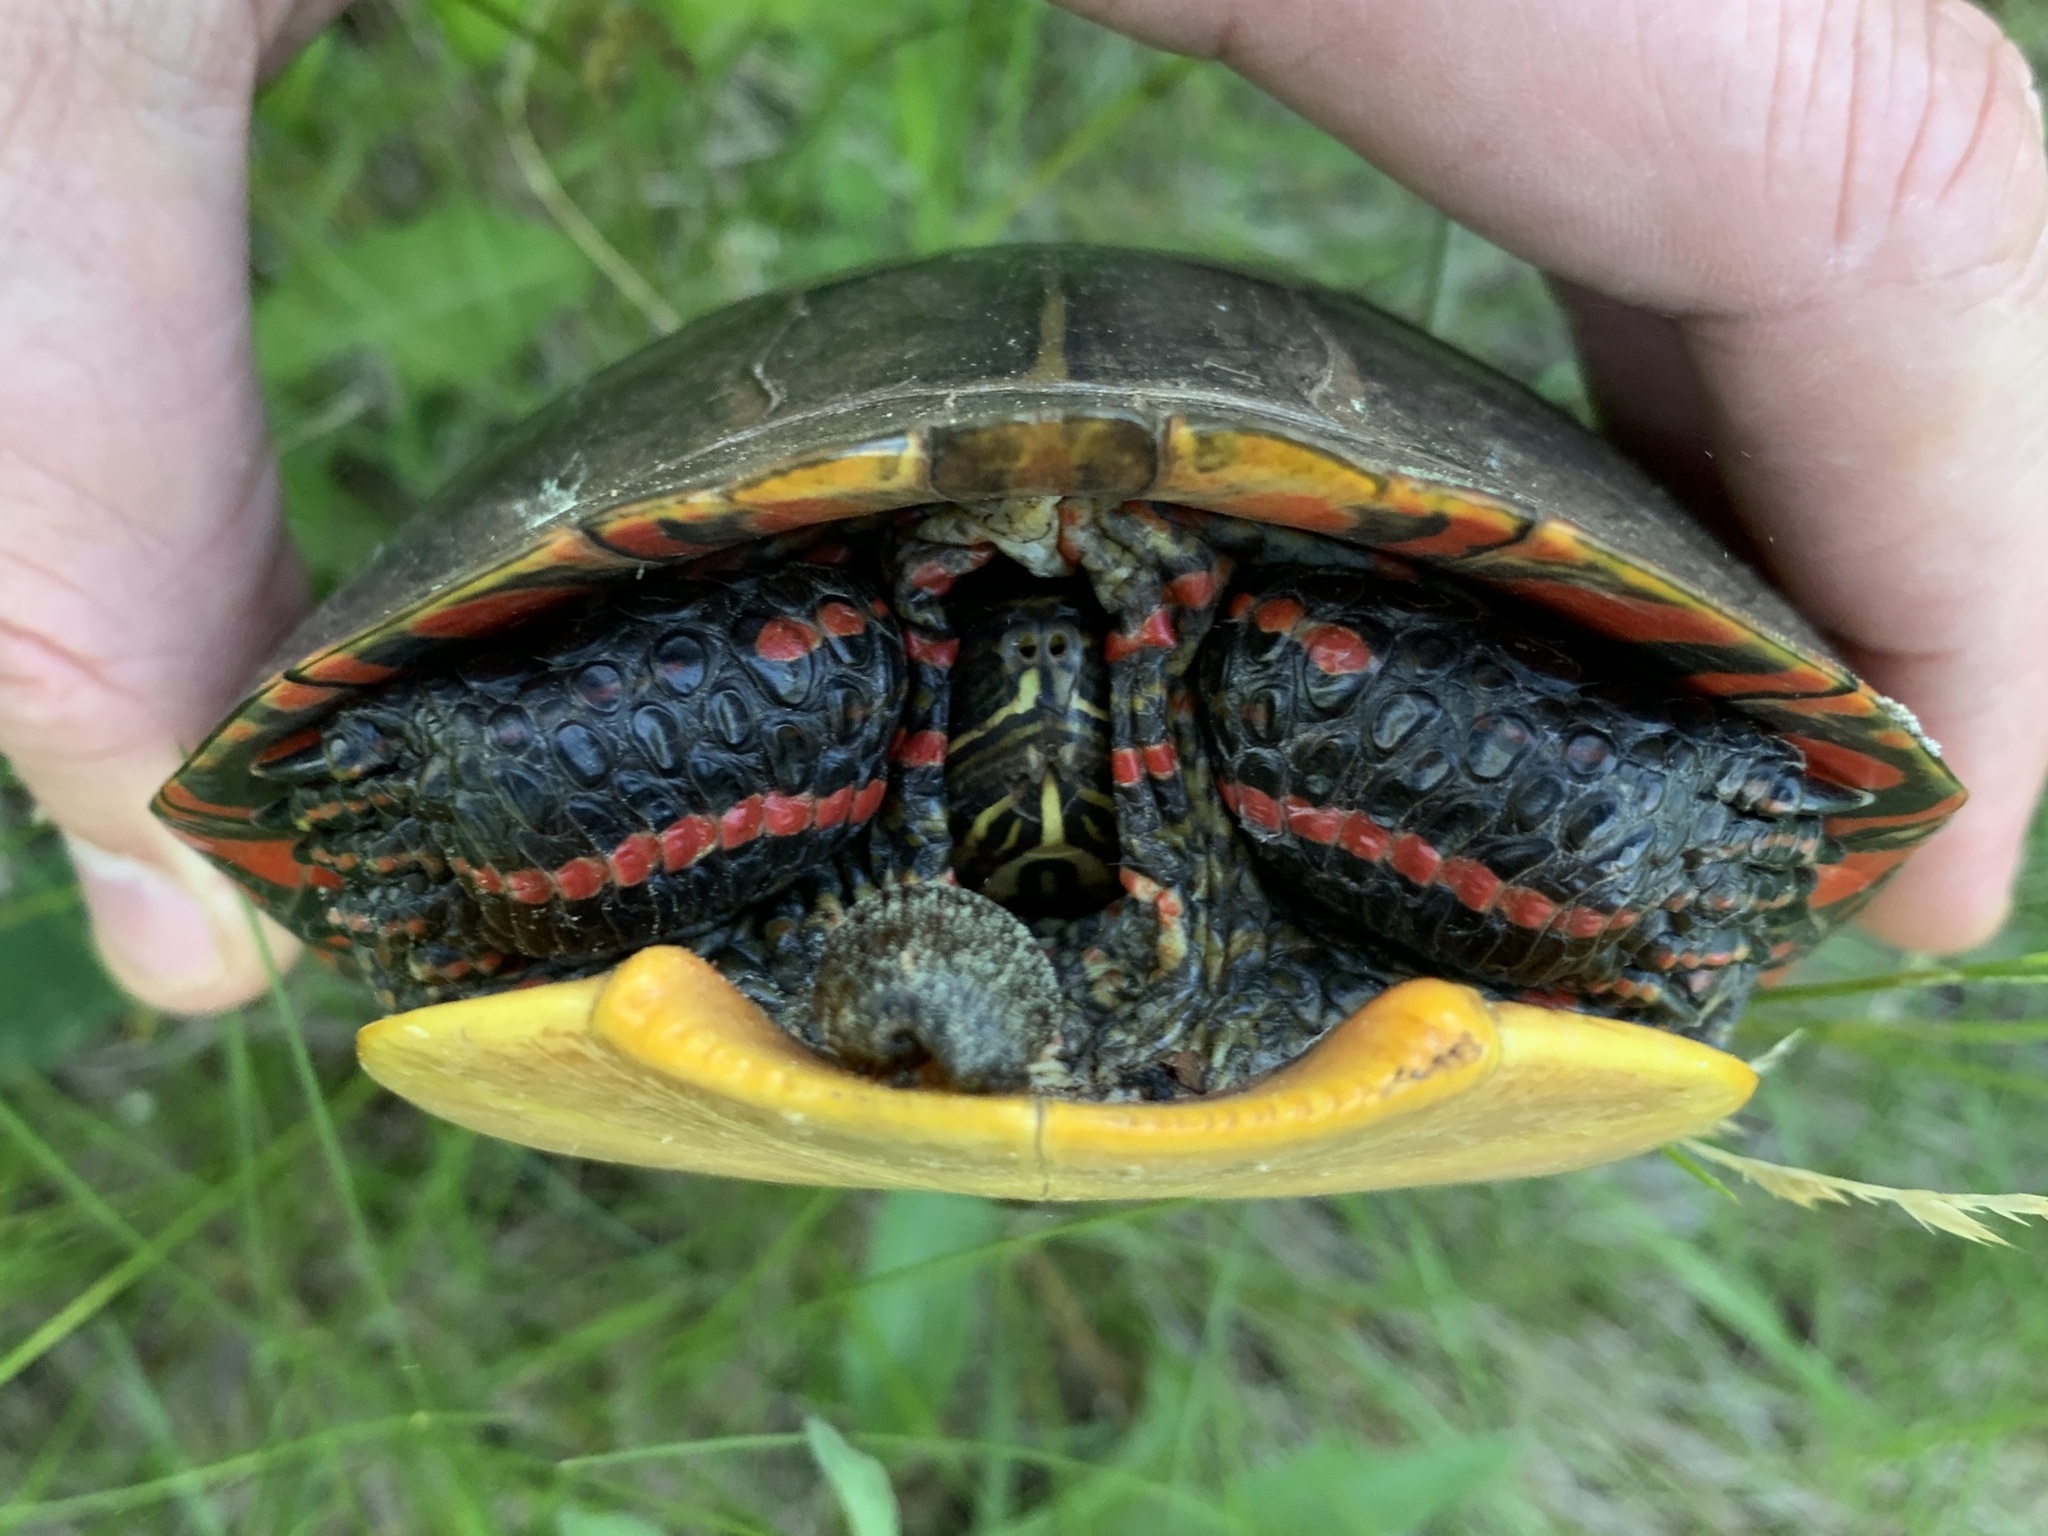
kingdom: Animalia
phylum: Chordata
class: Testudines
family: Emydidae
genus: Chrysemys
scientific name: Chrysemys picta
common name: Painted turtle
